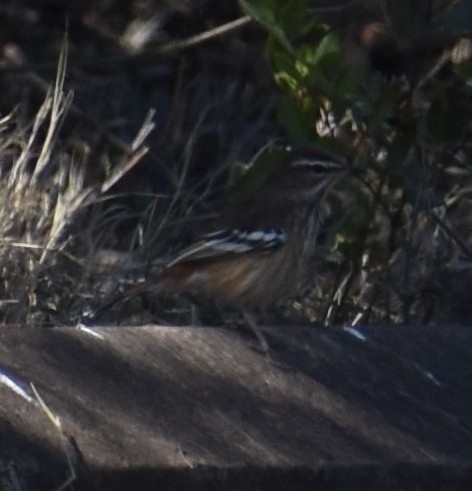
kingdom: Animalia
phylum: Chordata
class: Aves
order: Passeriformes
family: Muscicapidae
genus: Erythropygia
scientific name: Erythropygia leucophrys
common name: White-browed scrub robin
